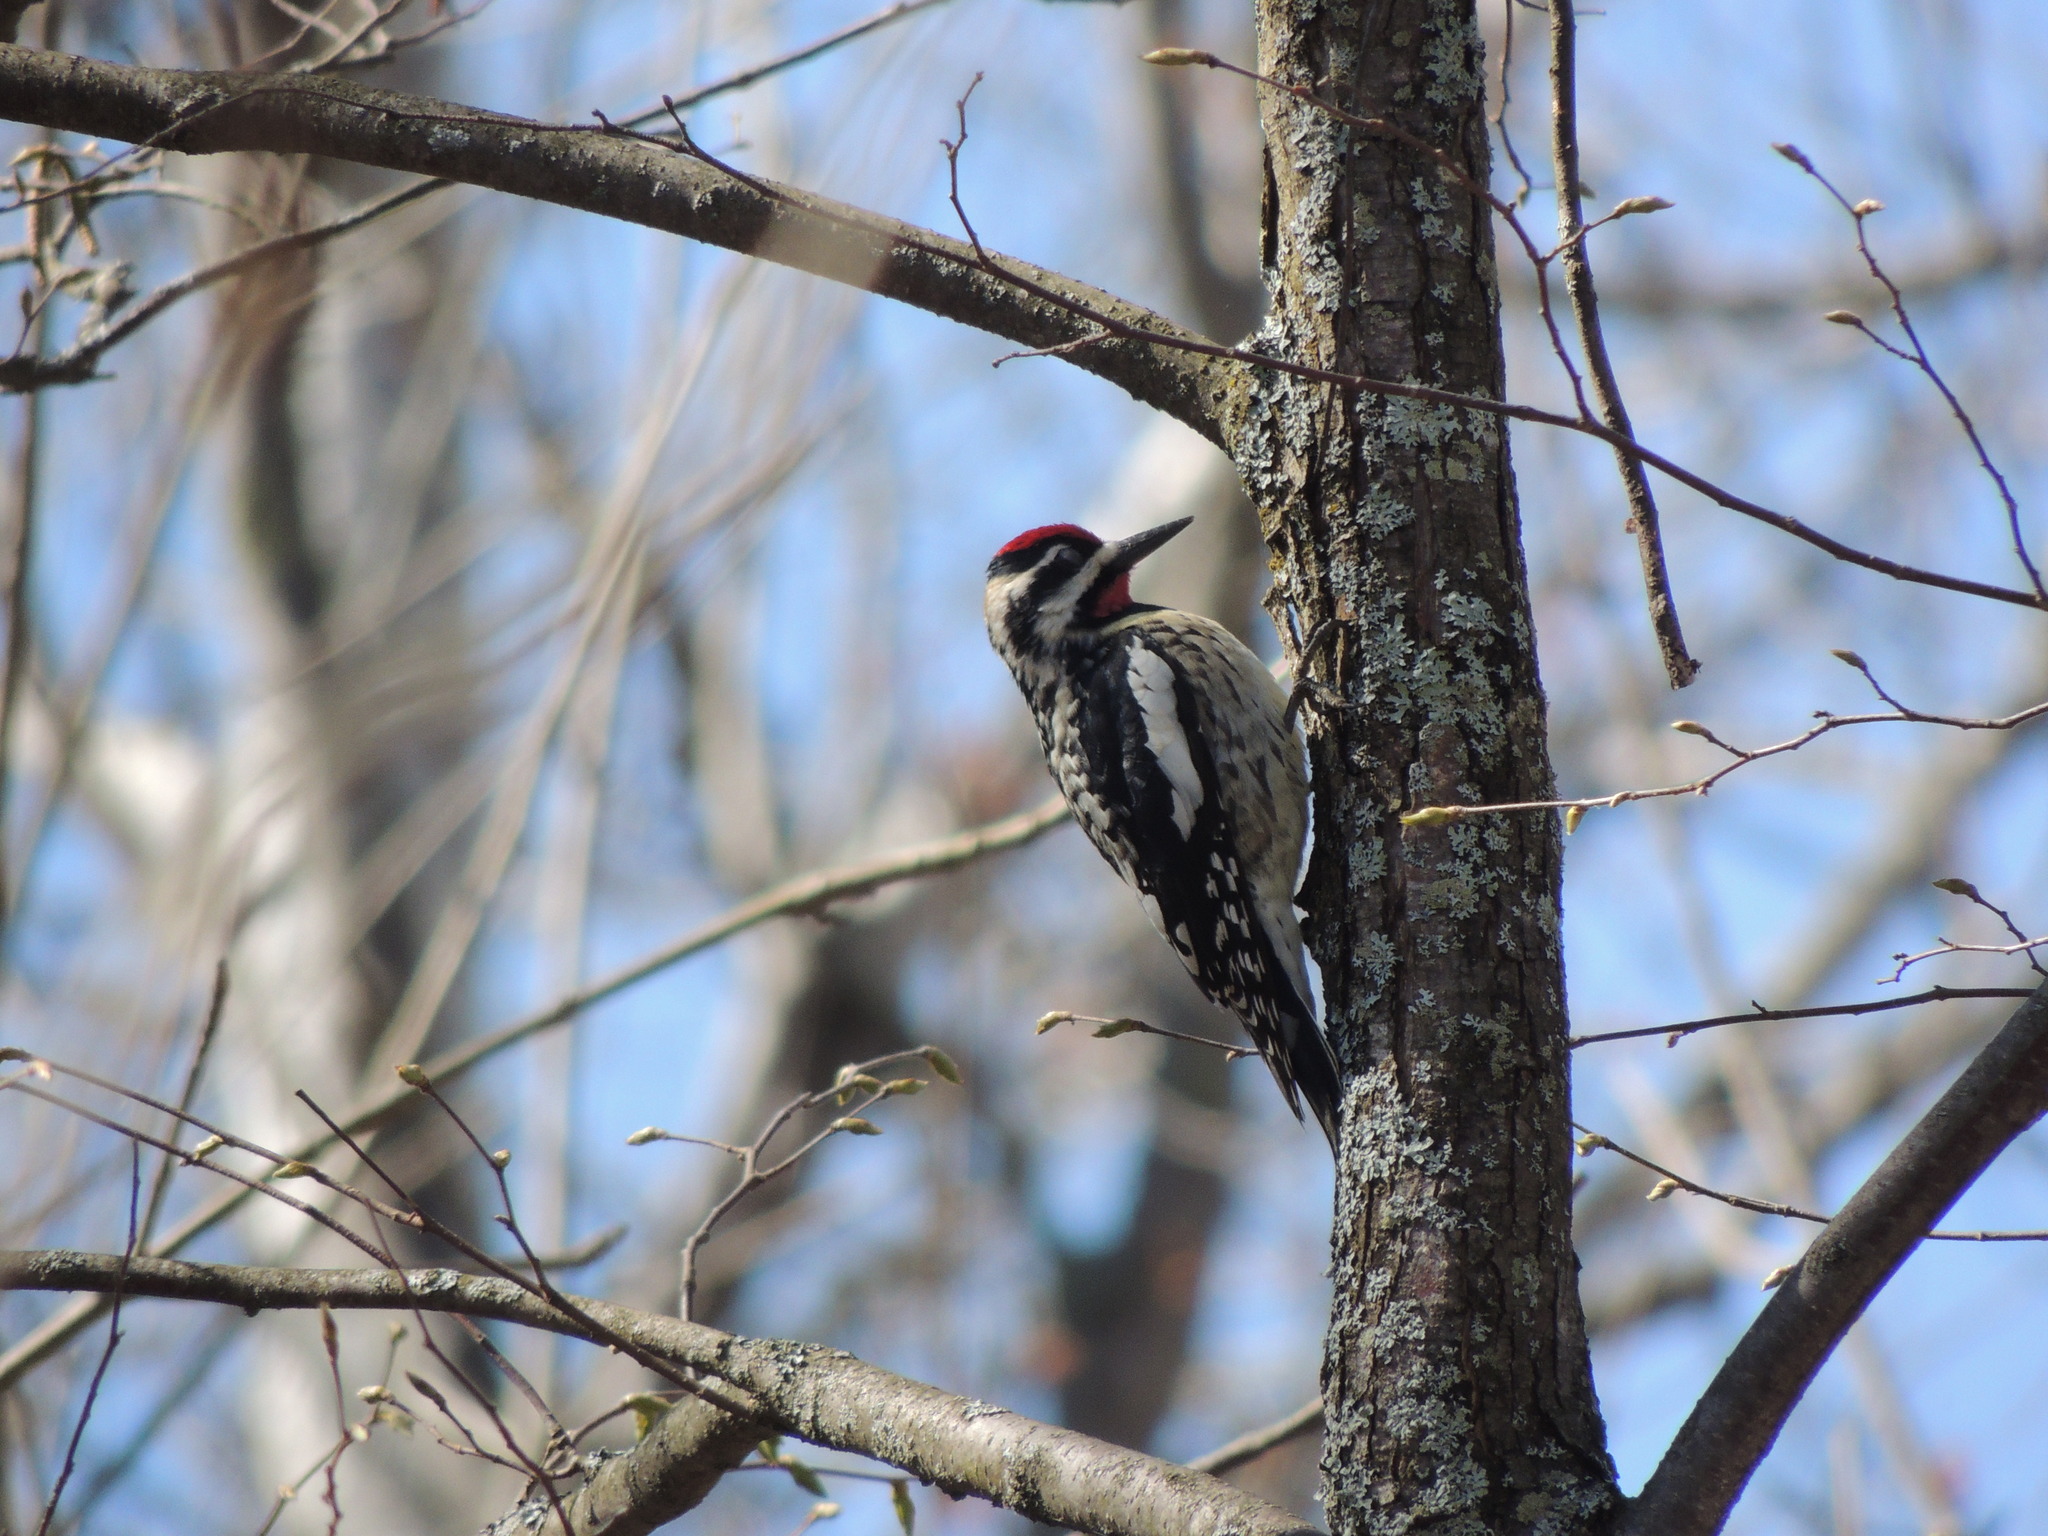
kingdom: Animalia
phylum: Chordata
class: Aves
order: Piciformes
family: Picidae
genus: Sphyrapicus
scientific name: Sphyrapicus varius
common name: Yellow-bellied sapsucker
